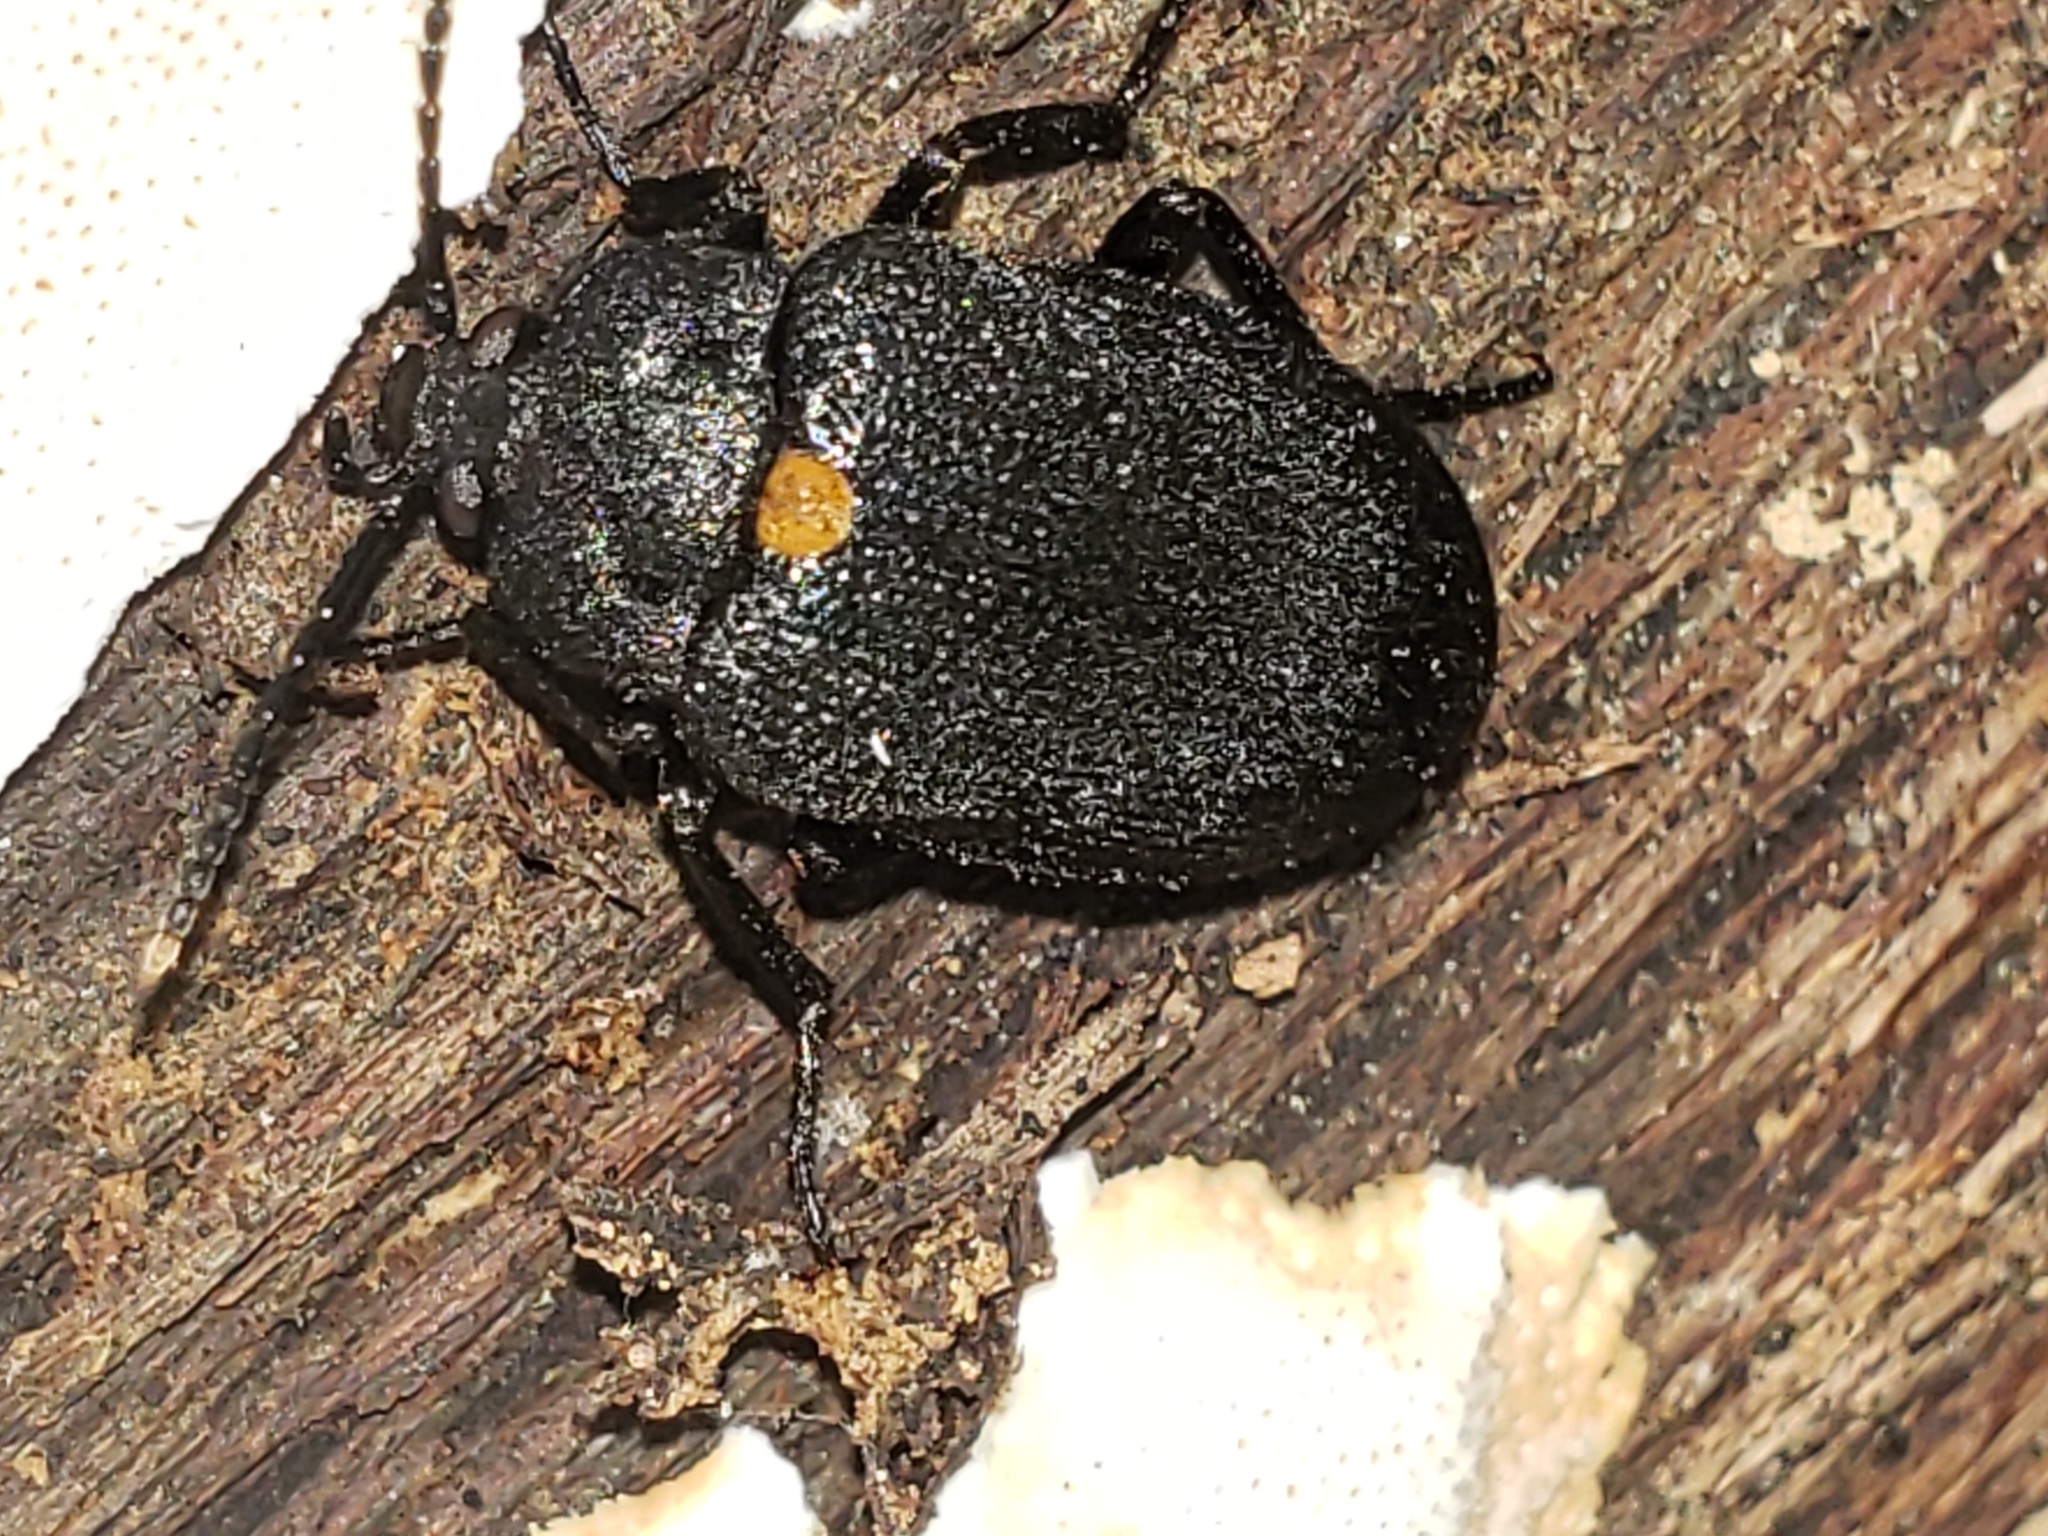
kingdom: Animalia
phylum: Arthropoda
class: Insecta
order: Coleoptera
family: Tetratomidae
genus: Penthe
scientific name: Penthe obliquata
